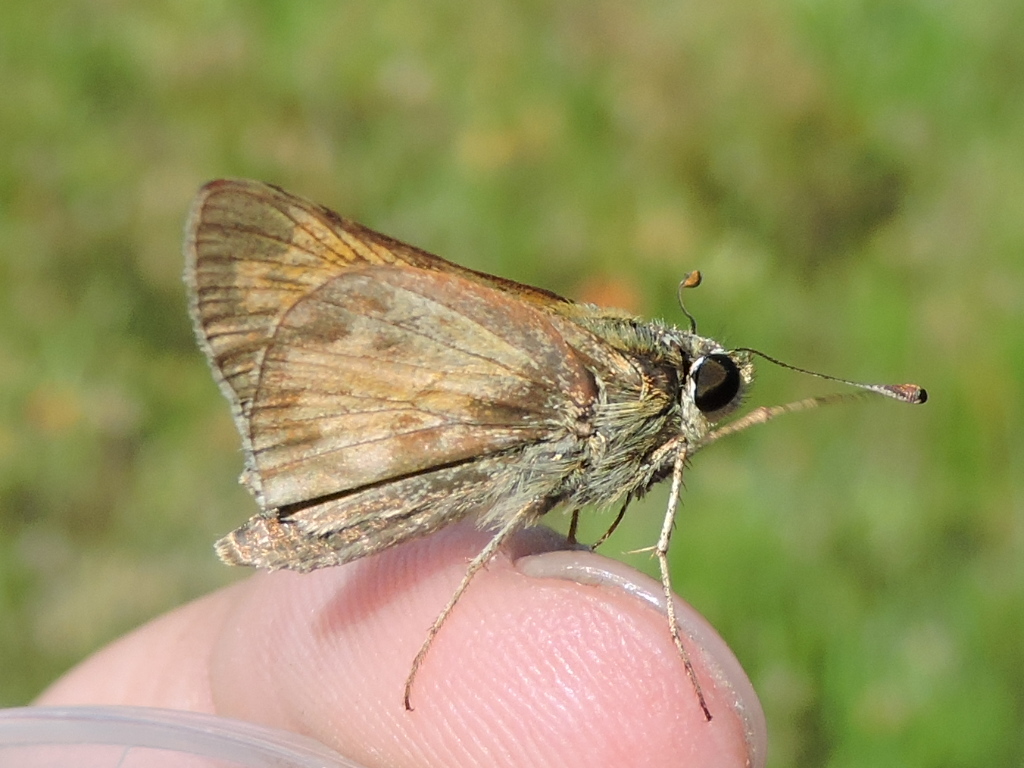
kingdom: Animalia
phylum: Arthropoda
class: Insecta
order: Lepidoptera
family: Hesperiidae
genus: Atalopedes
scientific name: Atalopedes
